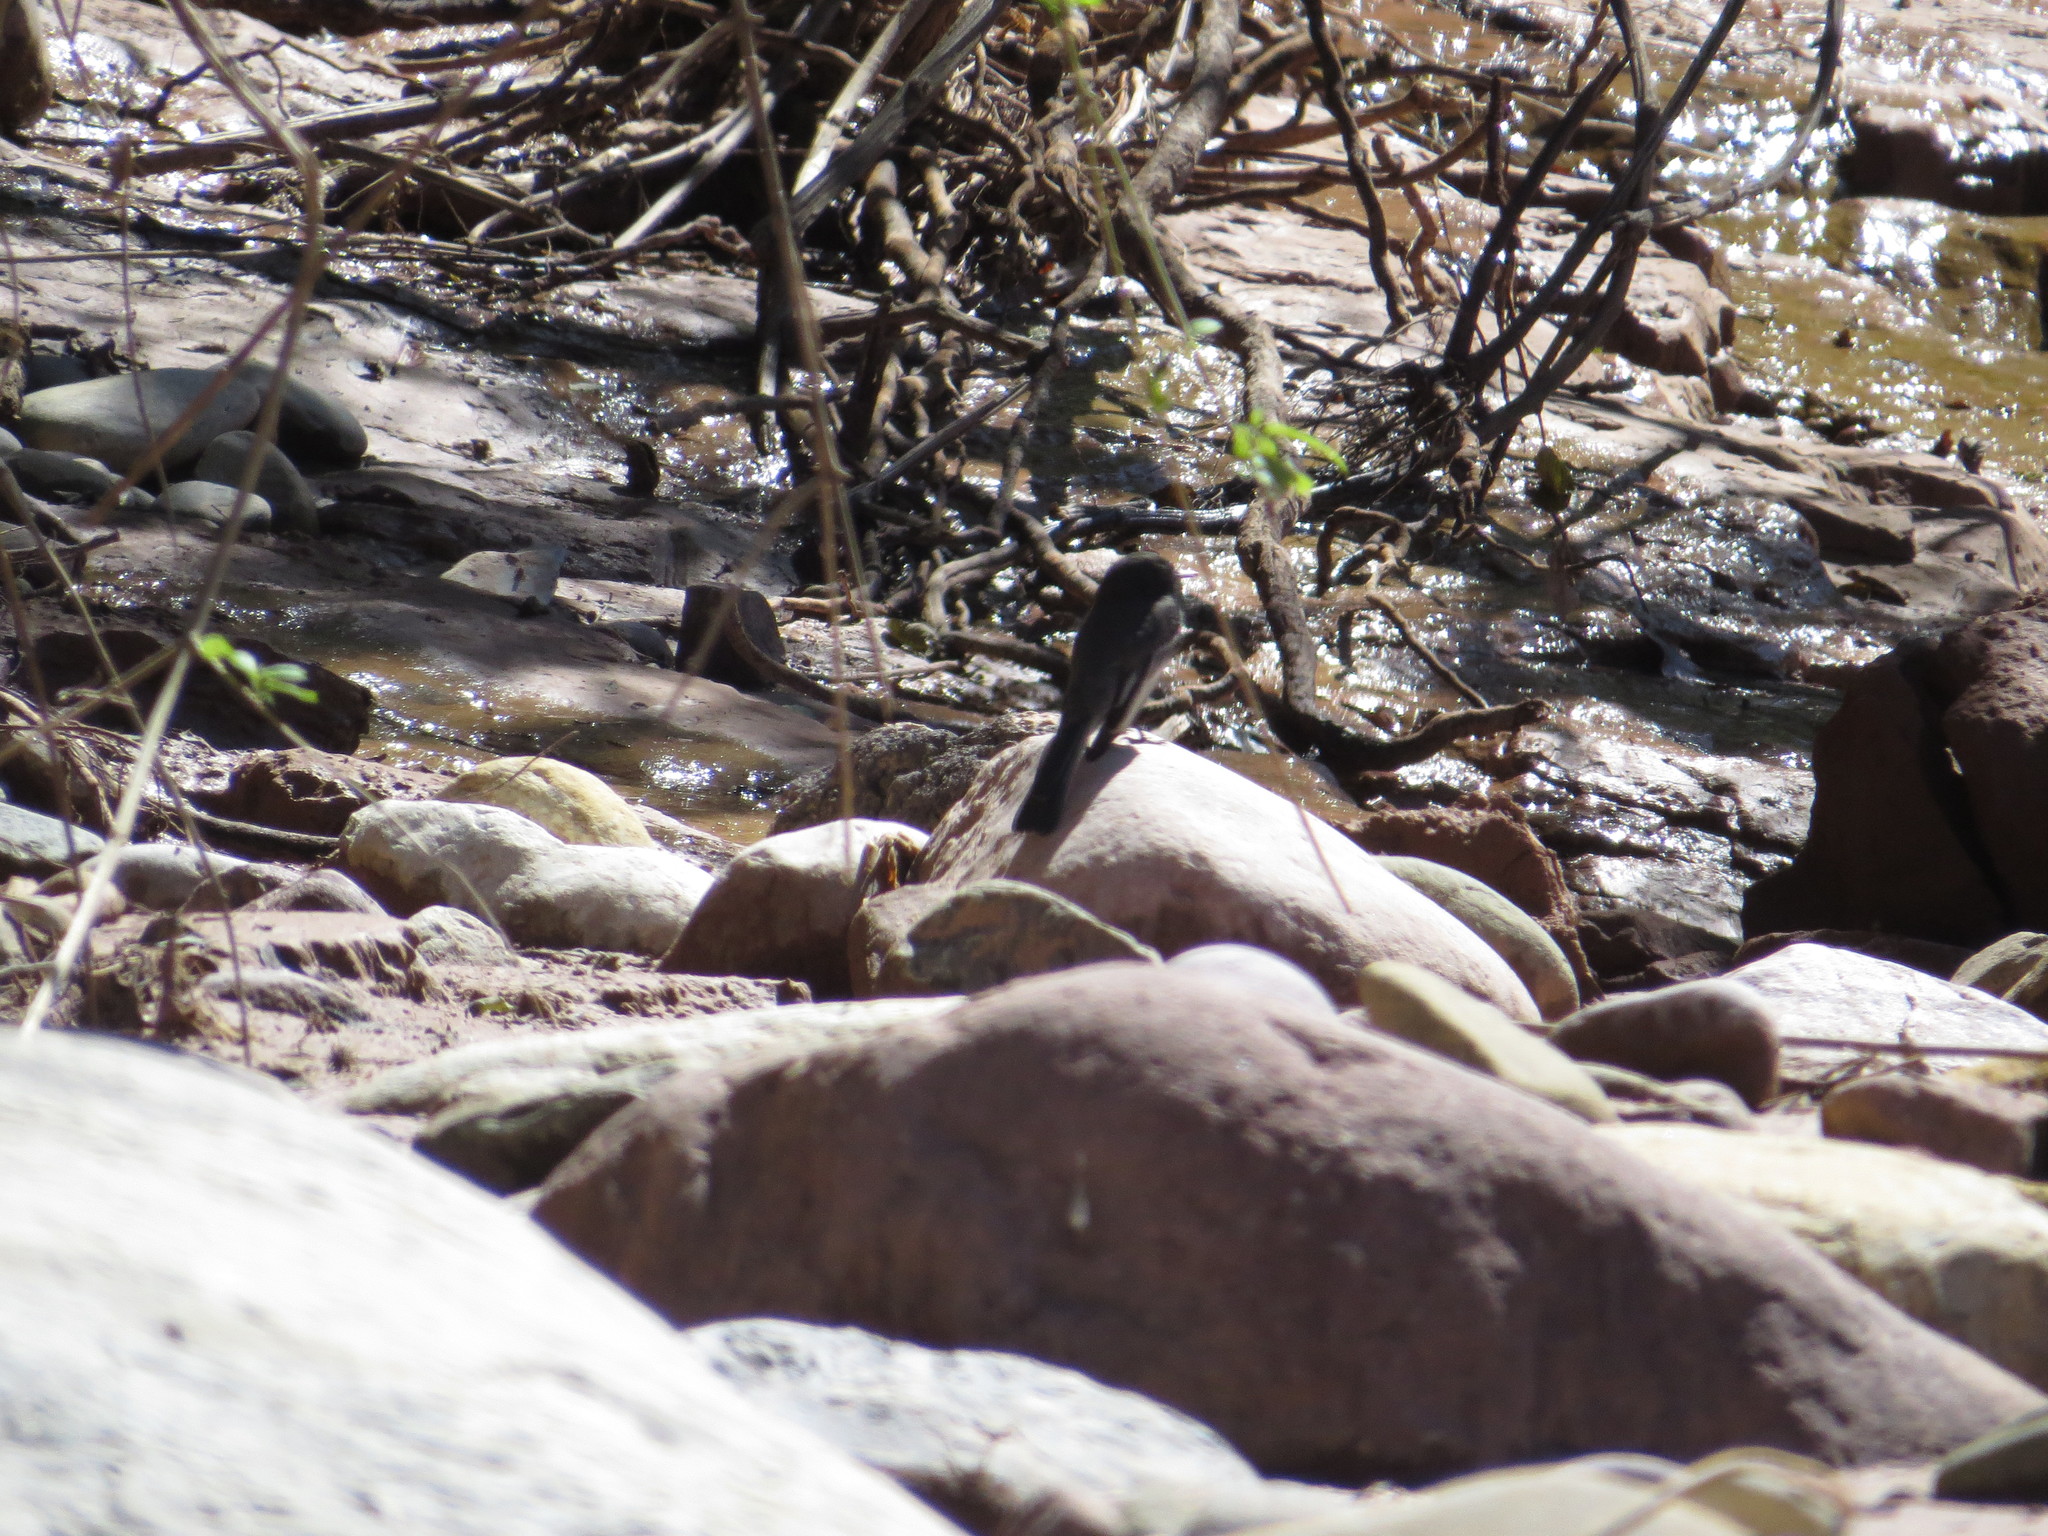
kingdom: Animalia
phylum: Chordata
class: Aves
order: Passeriformes
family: Tyrannidae
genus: Sayornis
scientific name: Sayornis nigricans
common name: Black phoebe
